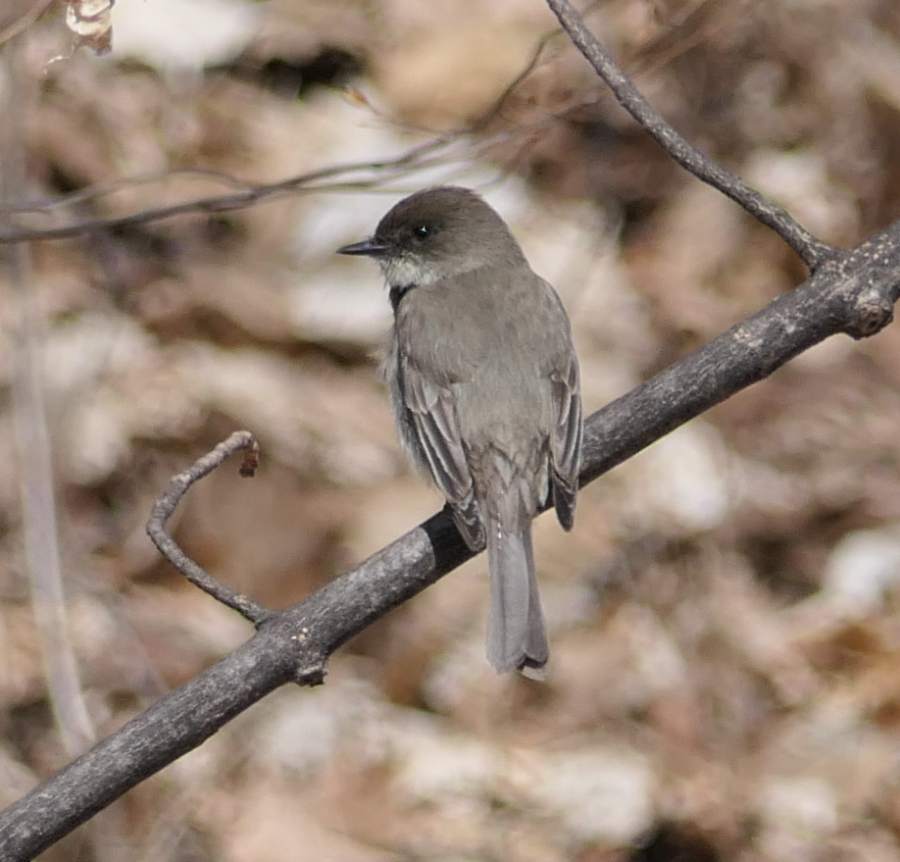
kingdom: Animalia
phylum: Chordata
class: Aves
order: Passeriformes
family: Tyrannidae
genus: Sayornis
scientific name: Sayornis phoebe
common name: Eastern phoebe
